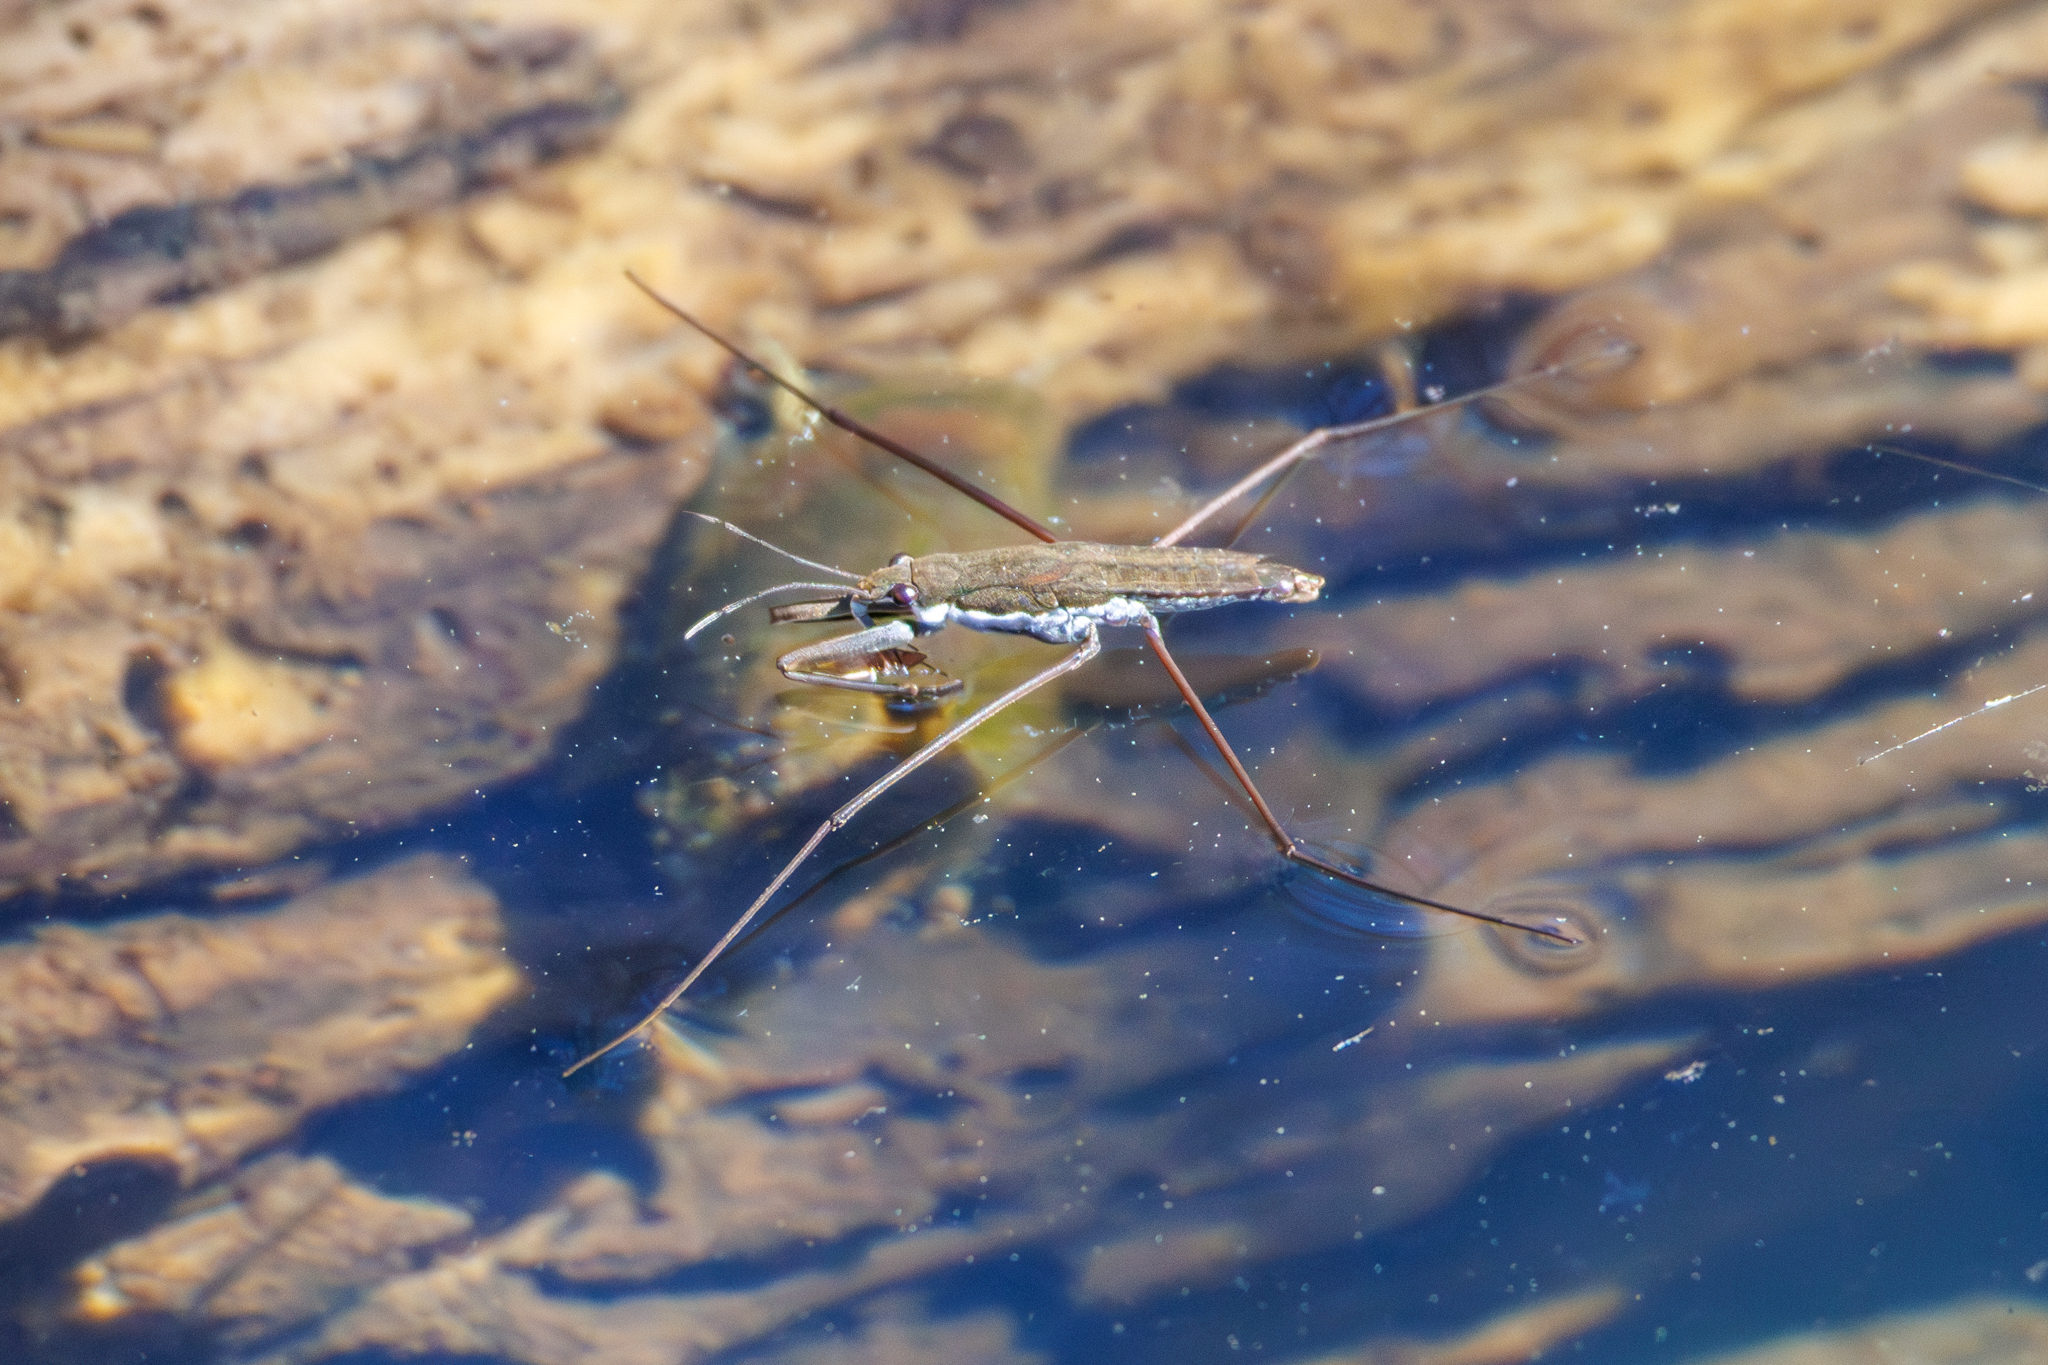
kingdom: Animalia
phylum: Arthropoda
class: Insecta
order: Hemiptera
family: Gerridae
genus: Aquarius
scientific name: Aquarius
